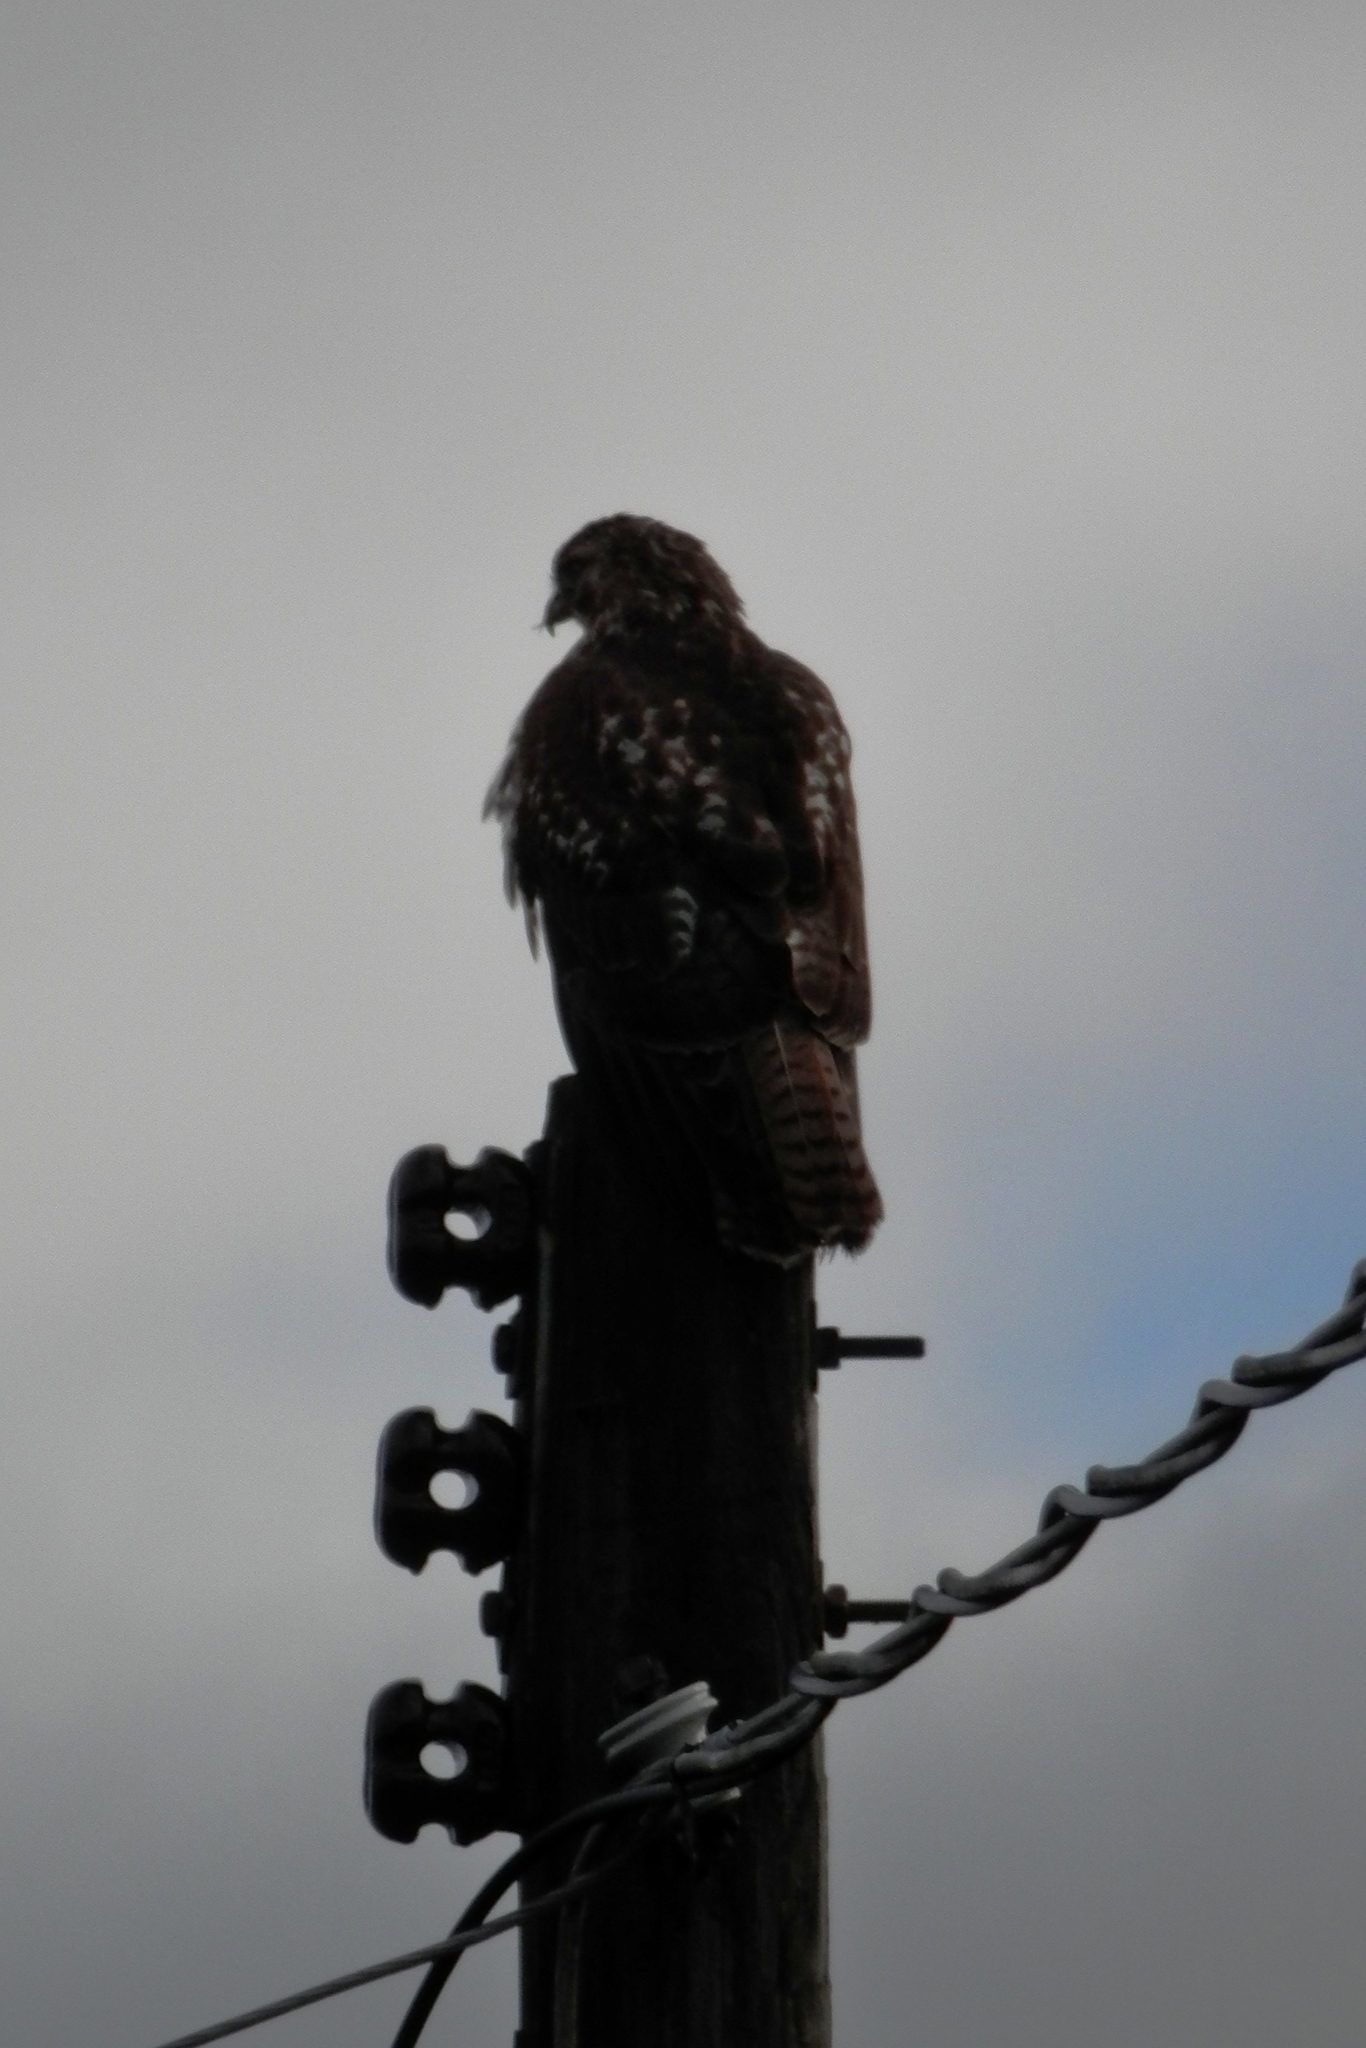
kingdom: Animalia
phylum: Chordata
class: Aves
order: Accipitriformes
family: Accipitridae
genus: Buteo
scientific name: Buteo jamaicensis
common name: Red-tailed hawk
